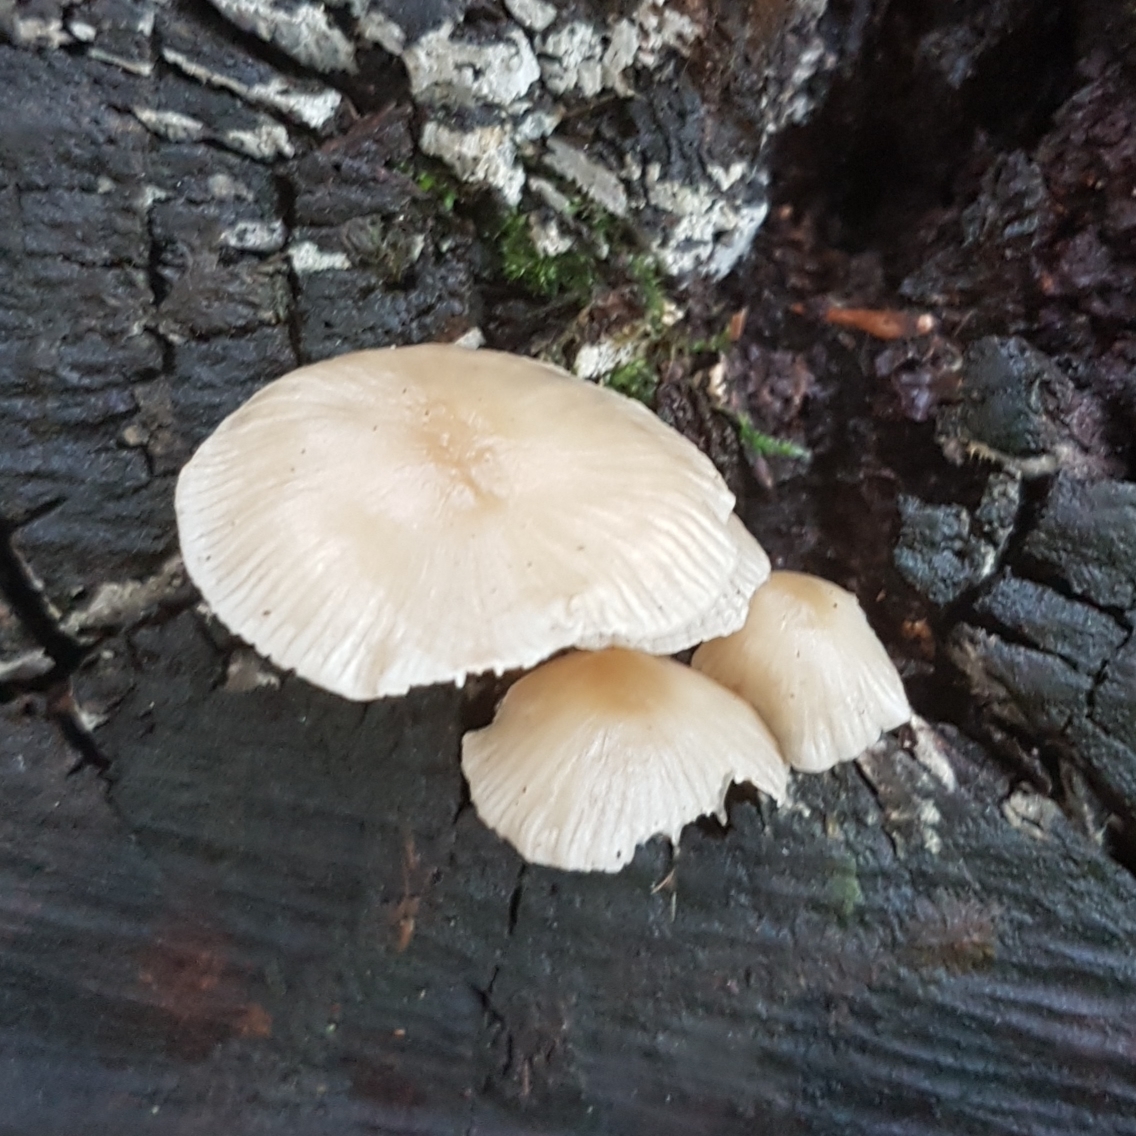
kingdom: Fungi
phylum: Basidiomycota
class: Agaricomycetes
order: Agaricales
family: Mycenaceae
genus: Mycena
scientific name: Mycena galericulata
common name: Bonnet mycena
